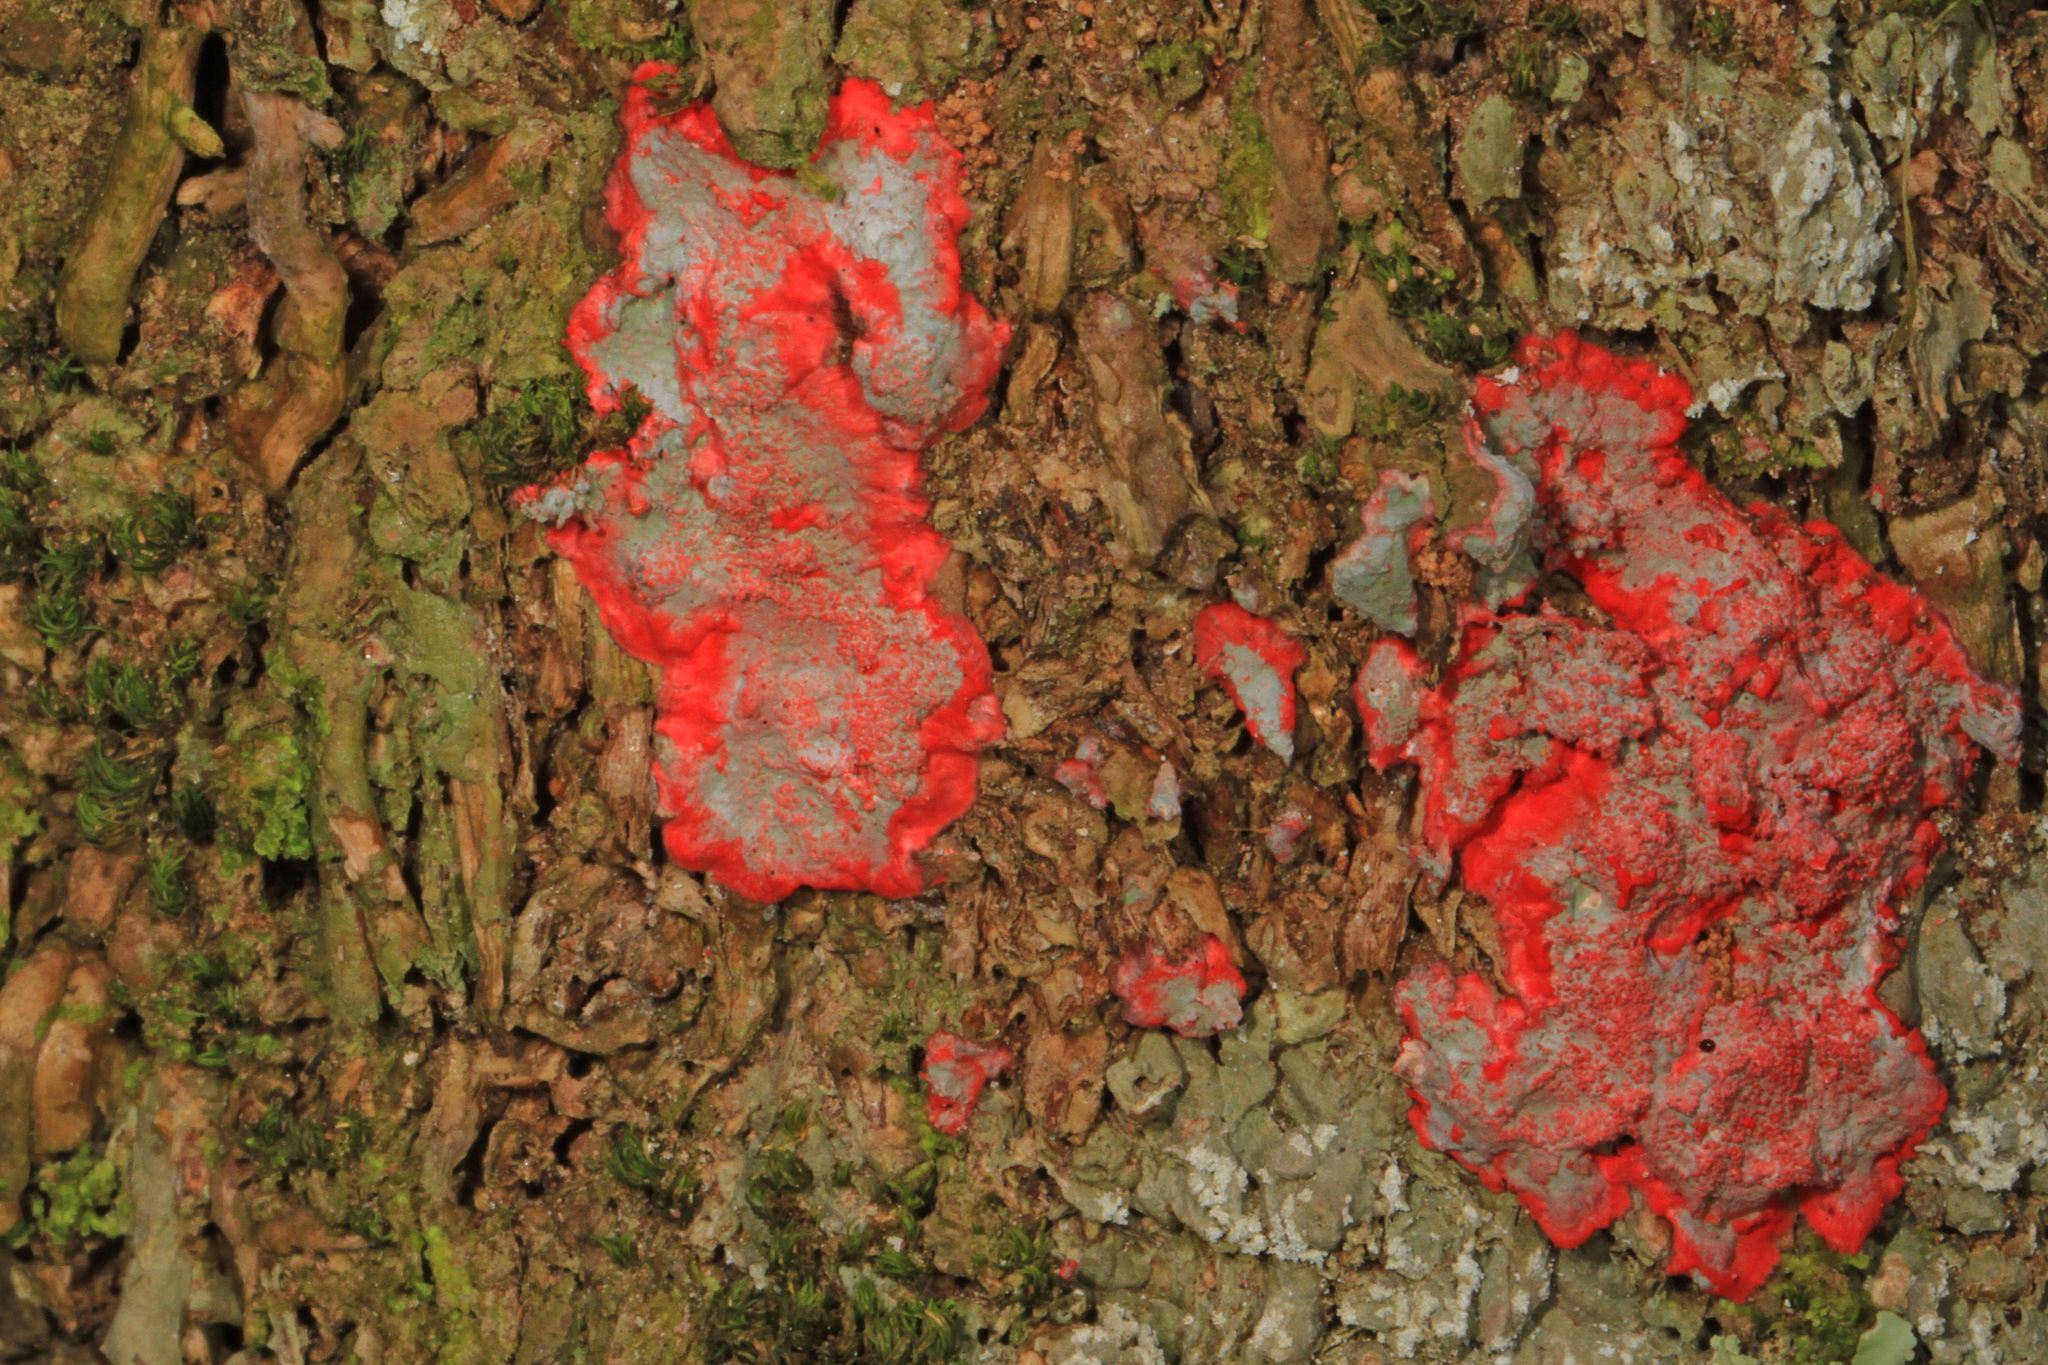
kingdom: Fungi
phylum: Ascomycota
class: Arthoniomycetes
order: Arthoniales
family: Arthoniaceae
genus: Herpothallon
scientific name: Herpothallon rubrocinctum
